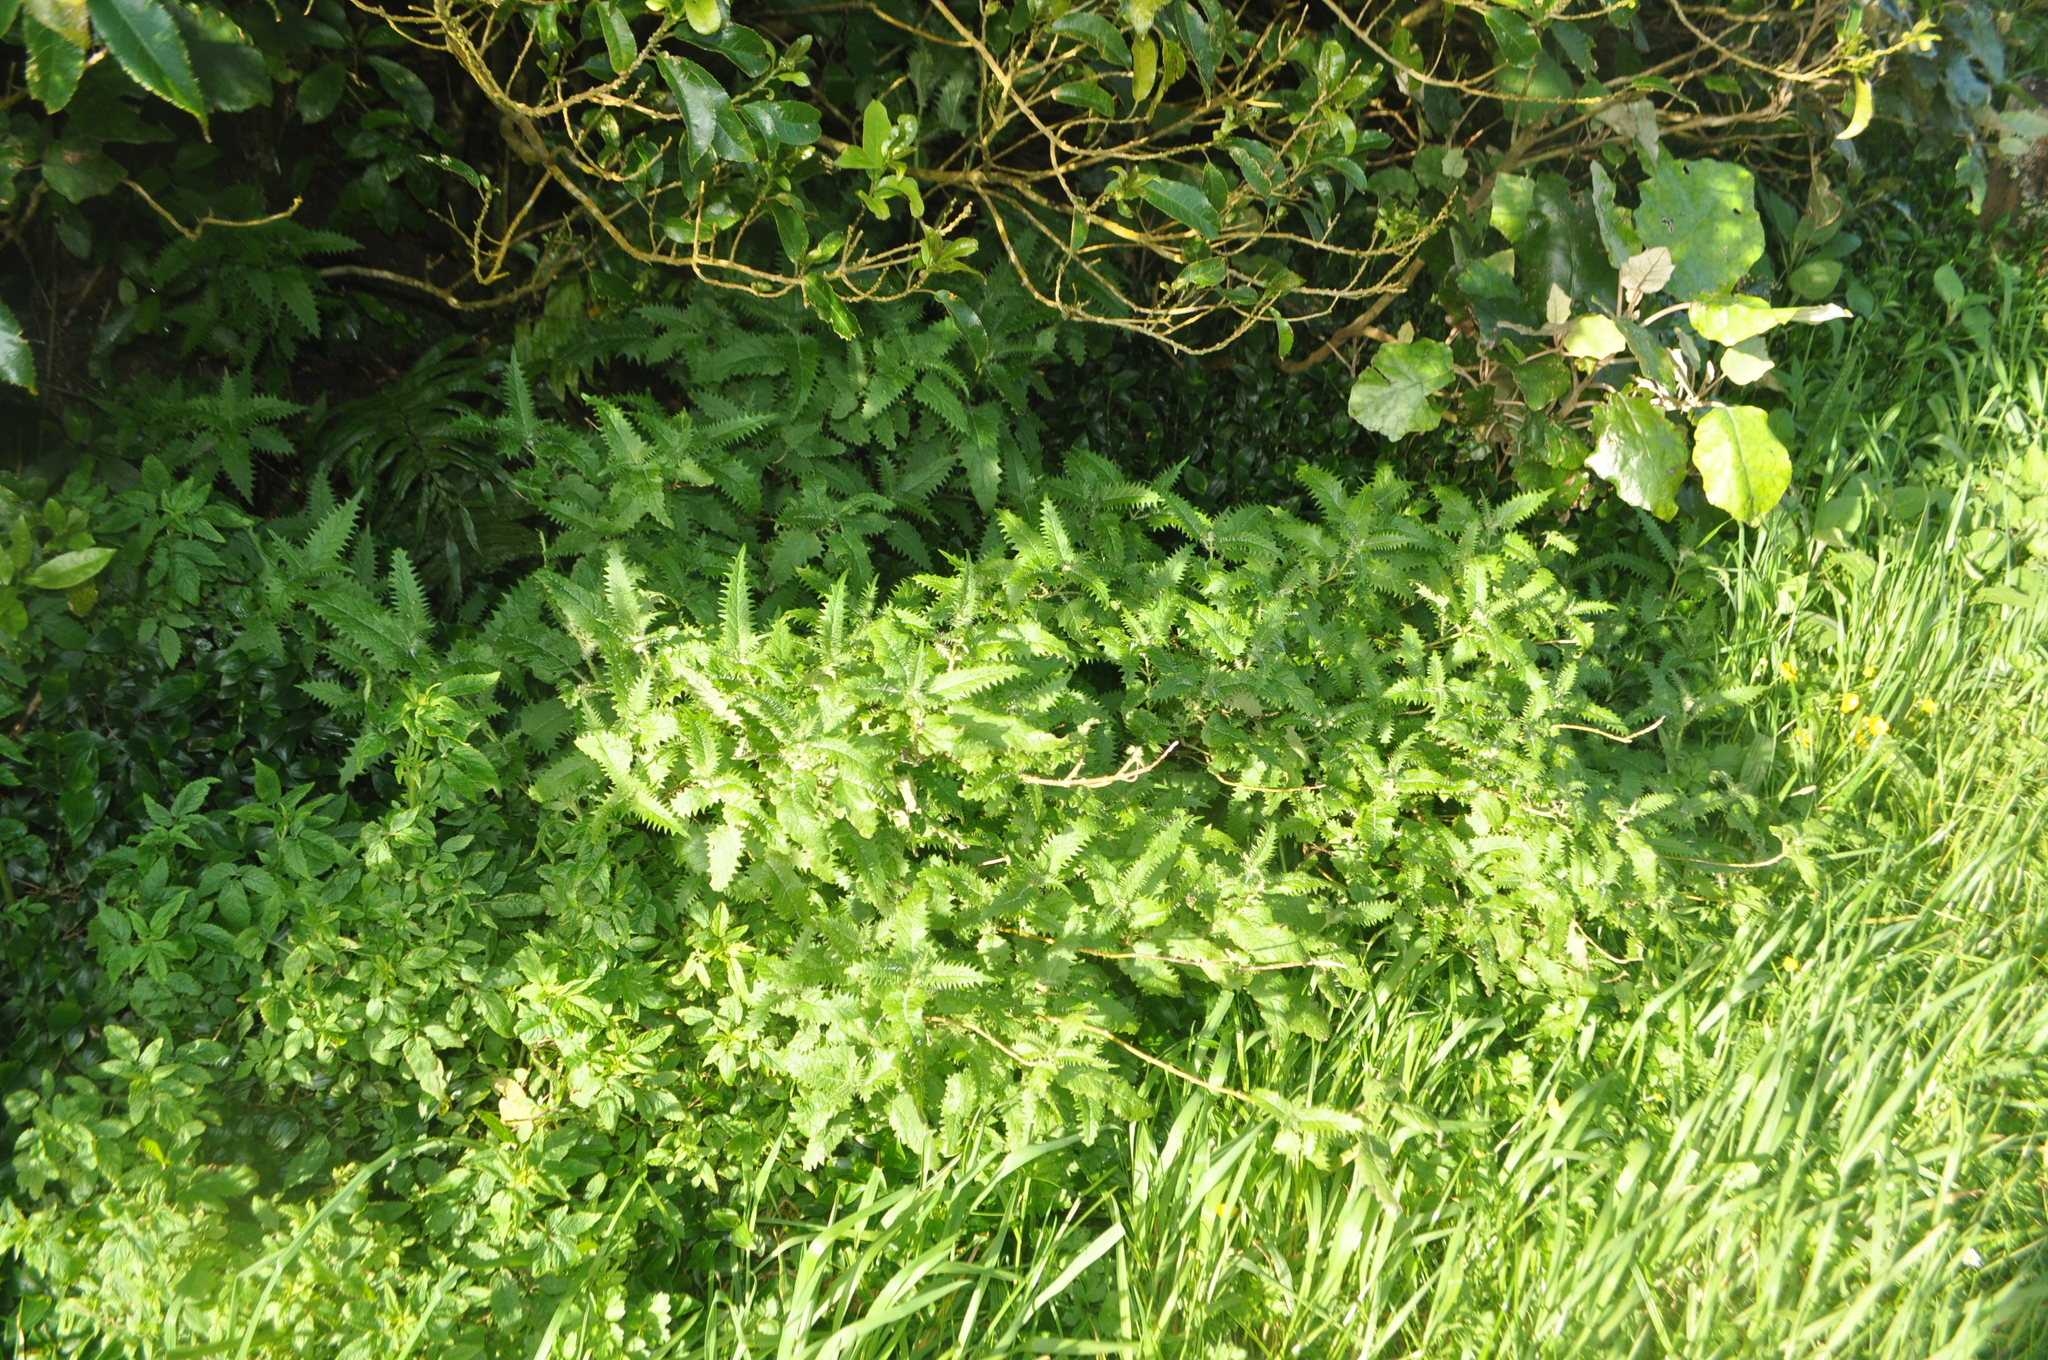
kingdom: Plantae
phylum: Tracheophyta
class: Magnoliopsida
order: Rosales
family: Urticaceae
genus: Urtica
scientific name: Urtica ferox
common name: Tree nettle
